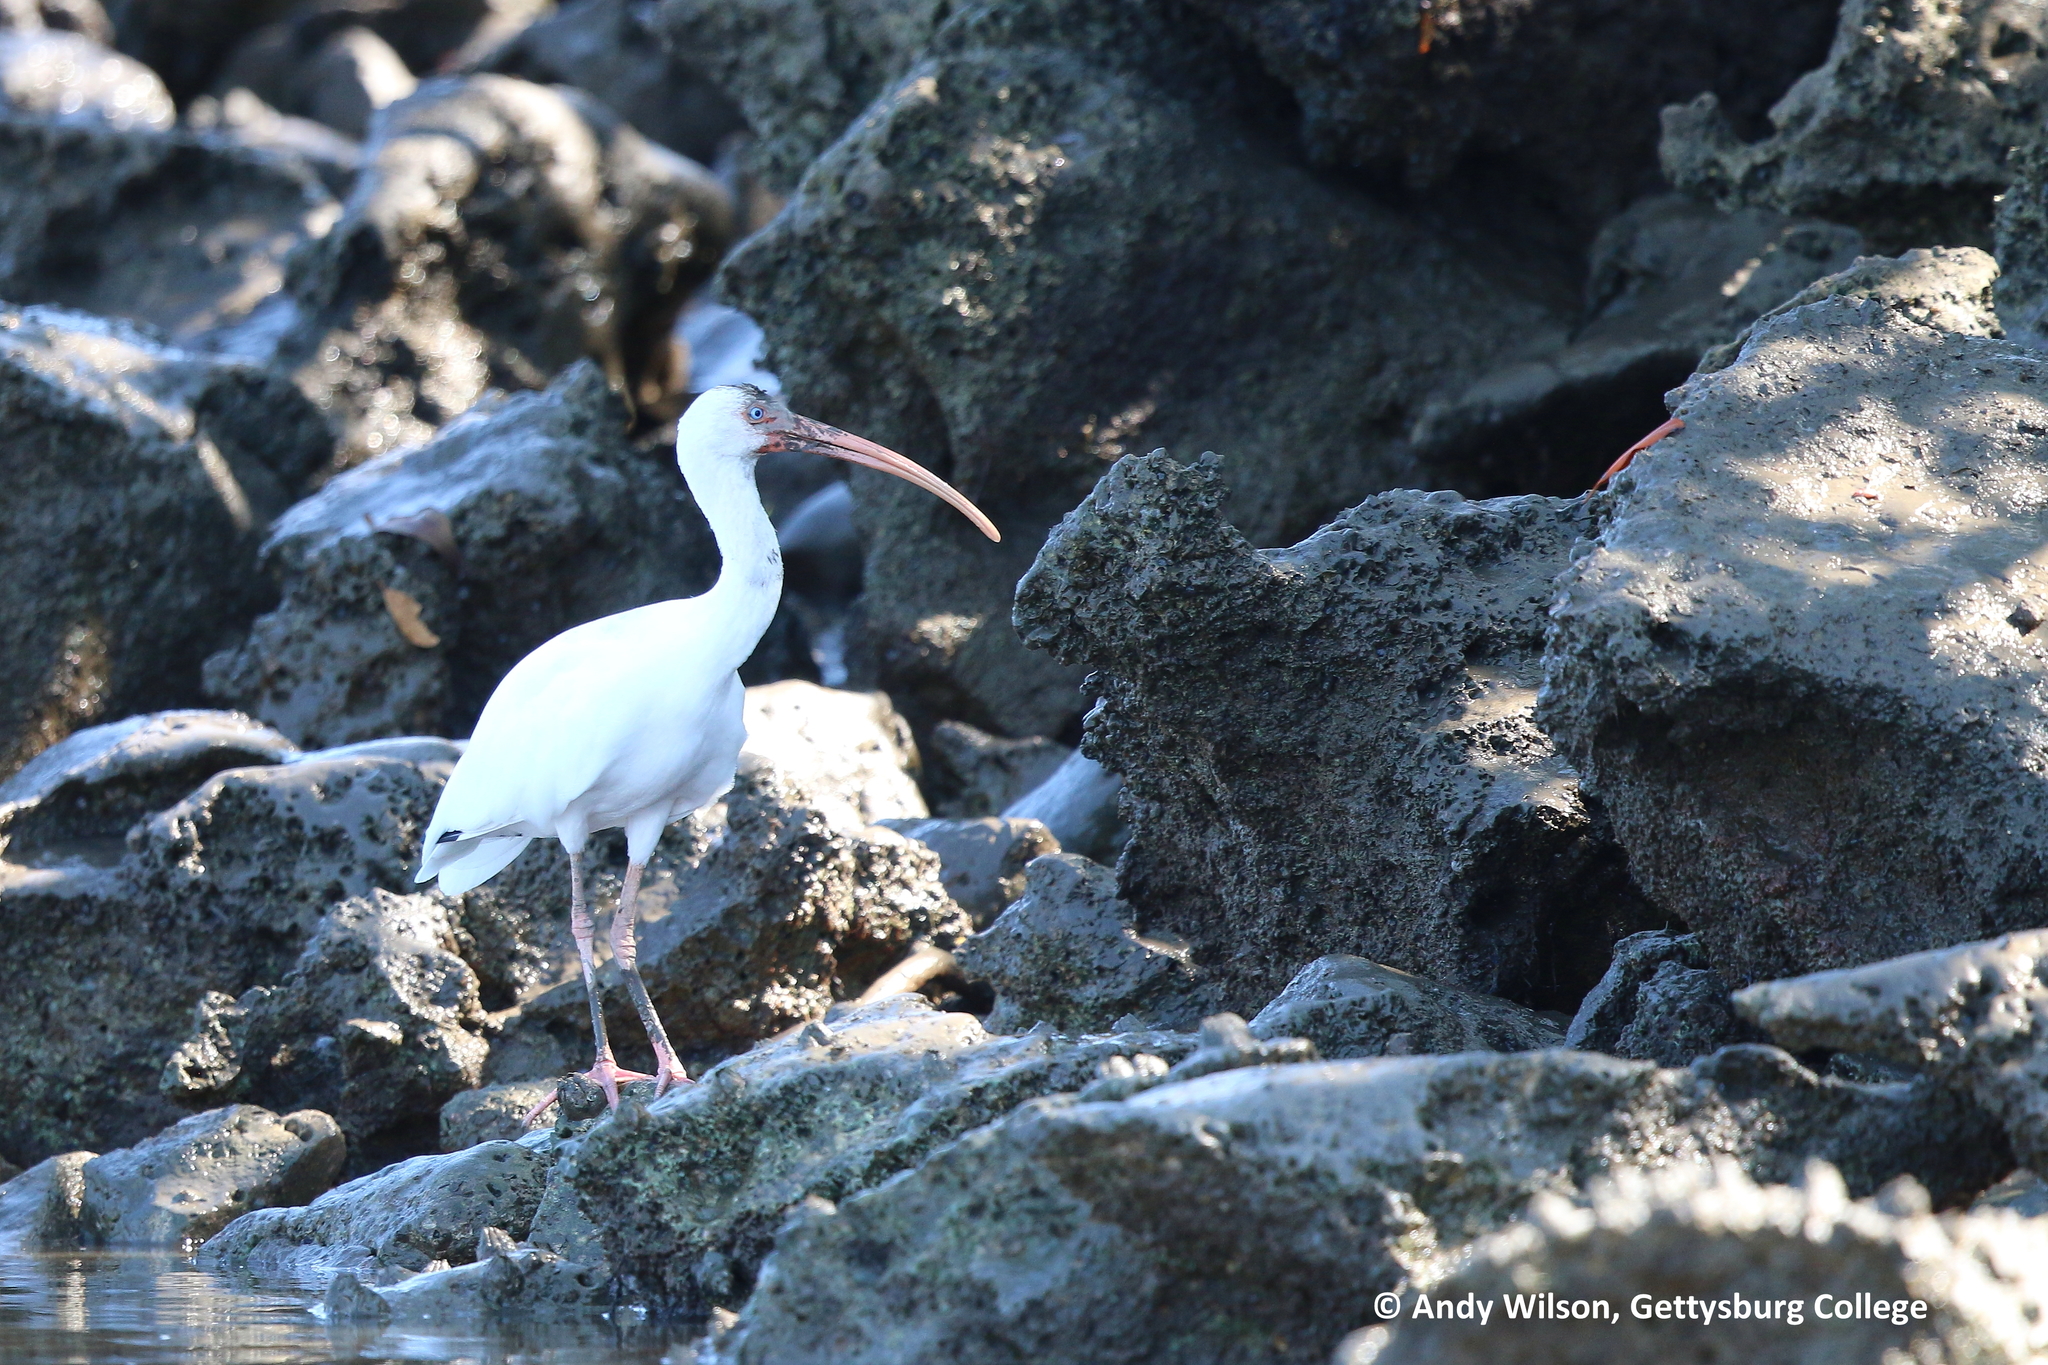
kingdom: Animalia
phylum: Chordata
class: Aves
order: Pelecaniformes
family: Threskiornithidae
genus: Eudocimus
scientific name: Eudocimus albus
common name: White ibis
